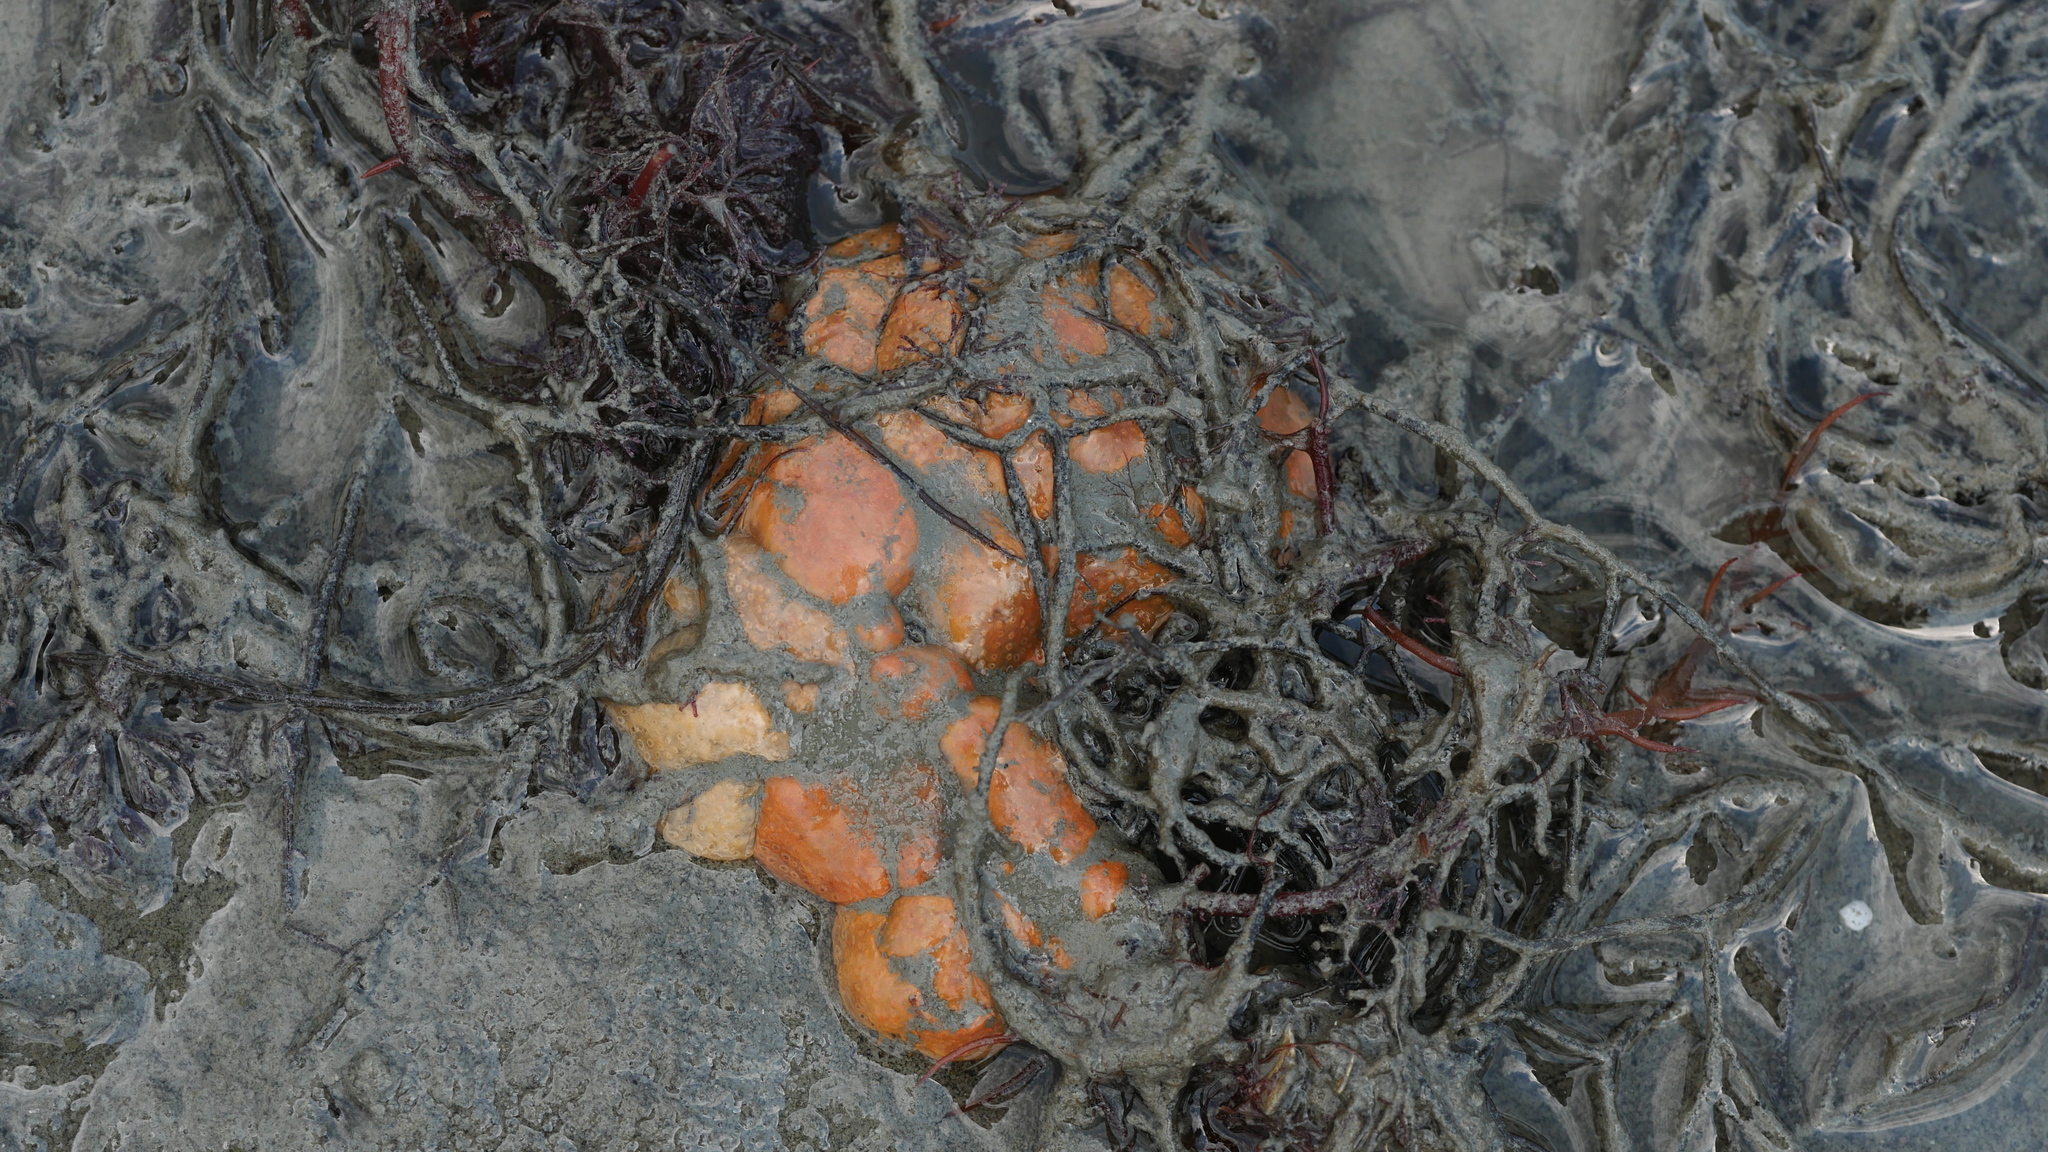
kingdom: Animalia
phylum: Chordata
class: Ascidiacea
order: Aplousobranchia
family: Polyclinidae
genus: Aplidium
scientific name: Aplidium stellatum
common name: Atlantic sea pork
